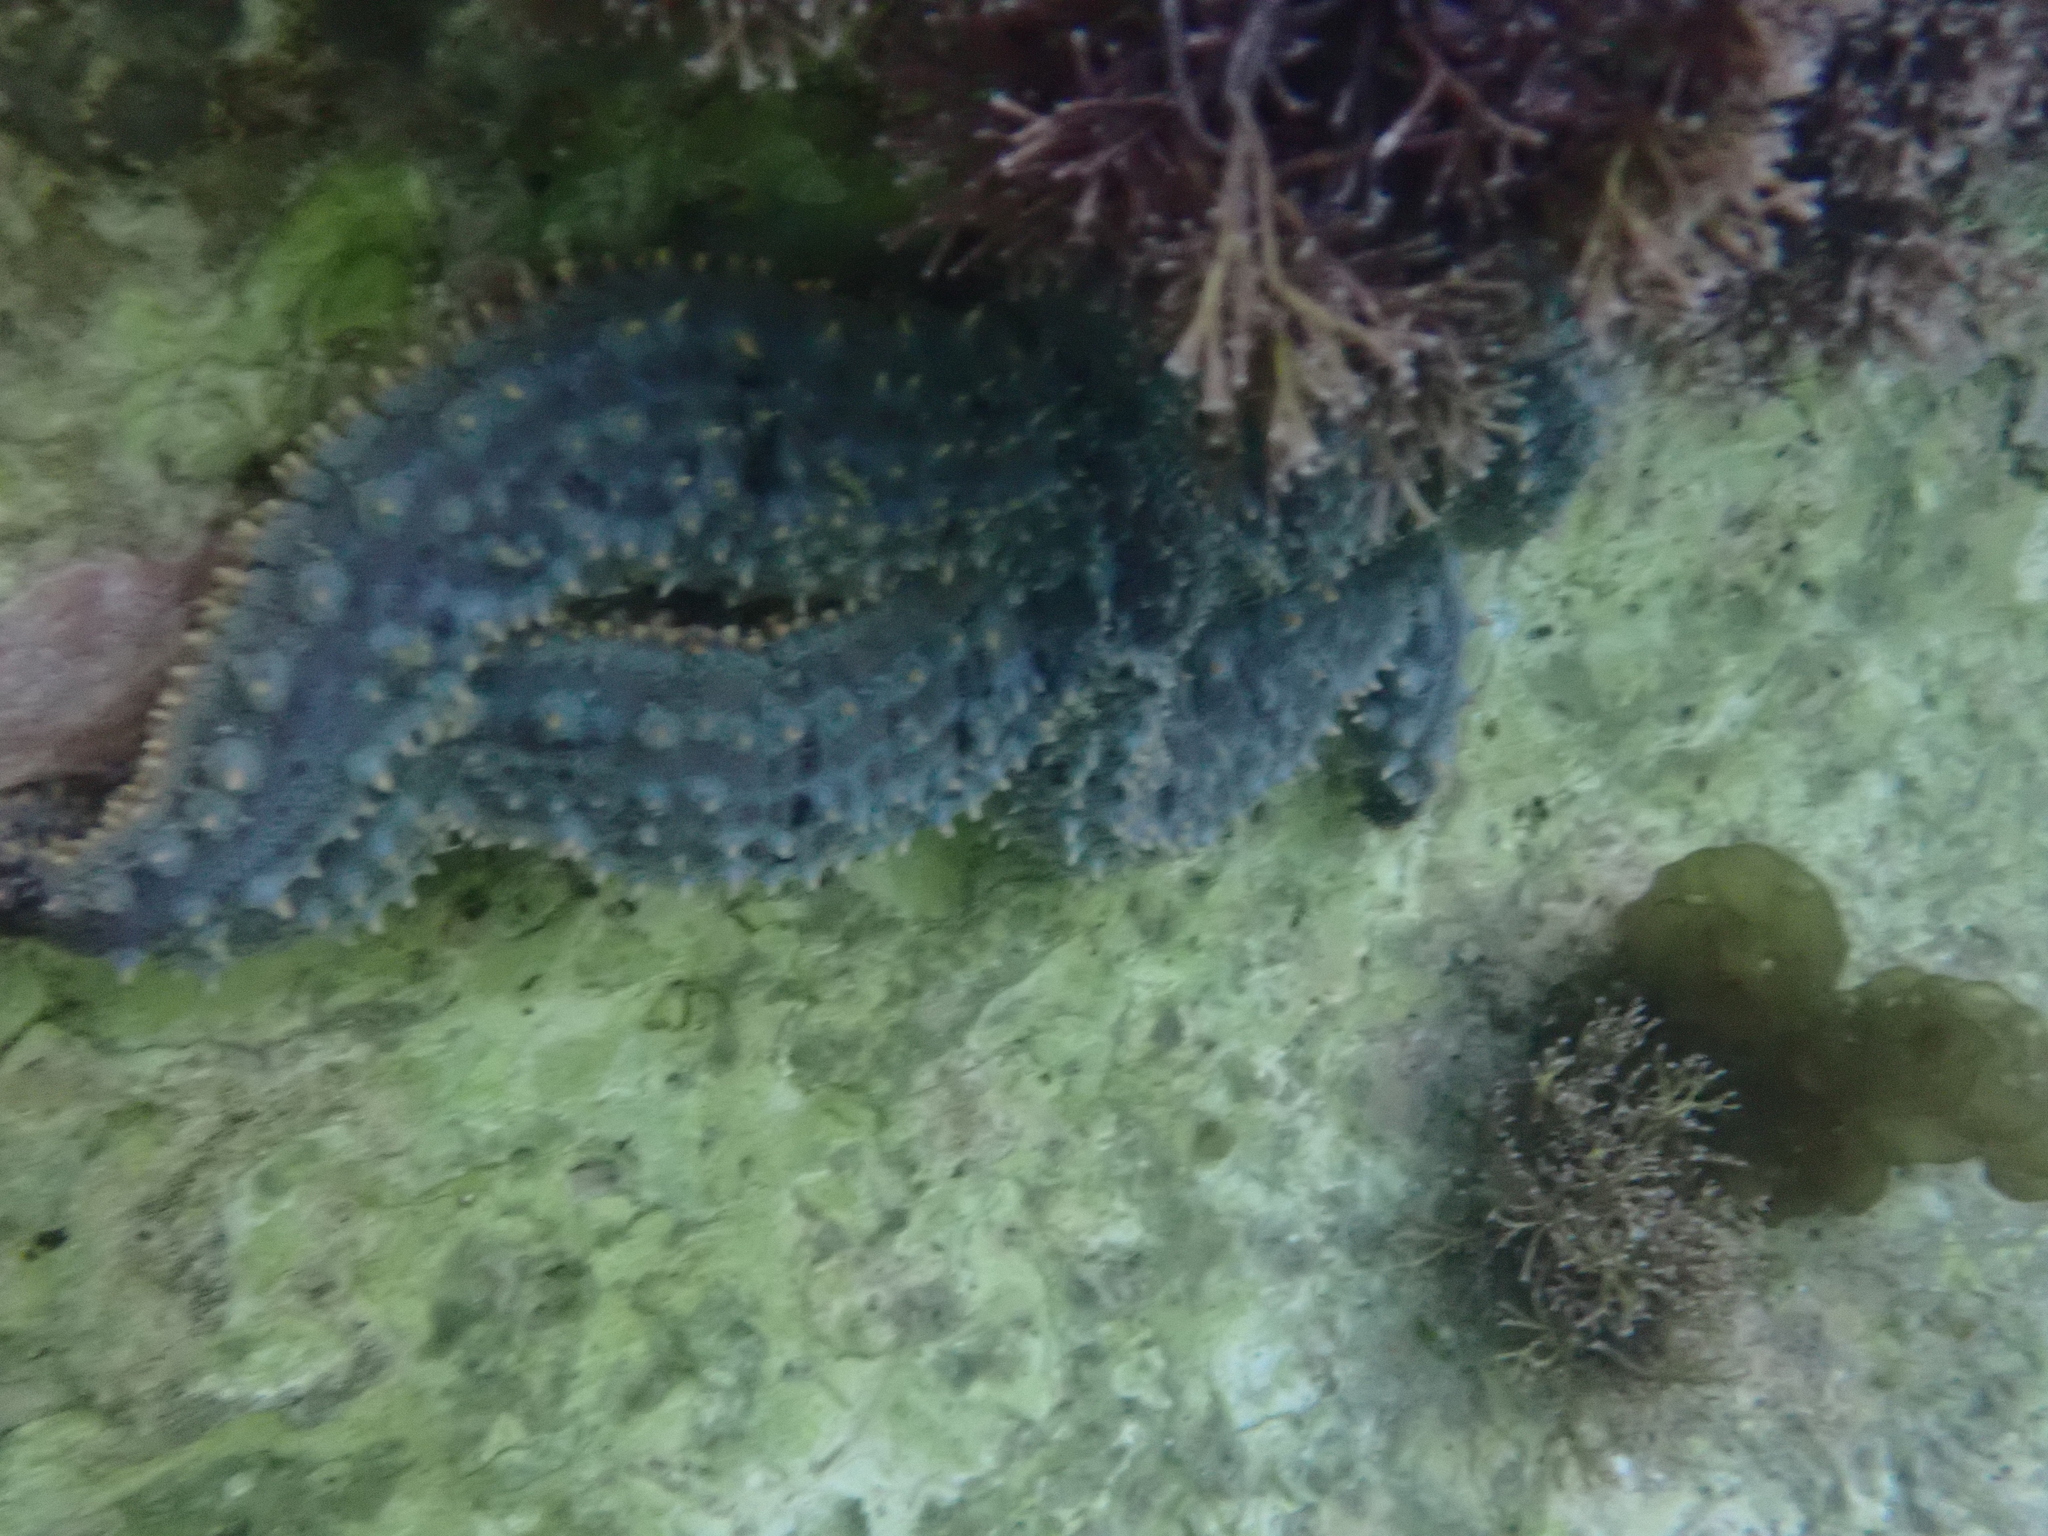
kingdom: Animalia
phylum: Echinodermata
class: Asteroidea
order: Forcipulatida
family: Asteriidae
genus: Marthasterias
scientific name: Marthasterias africana
